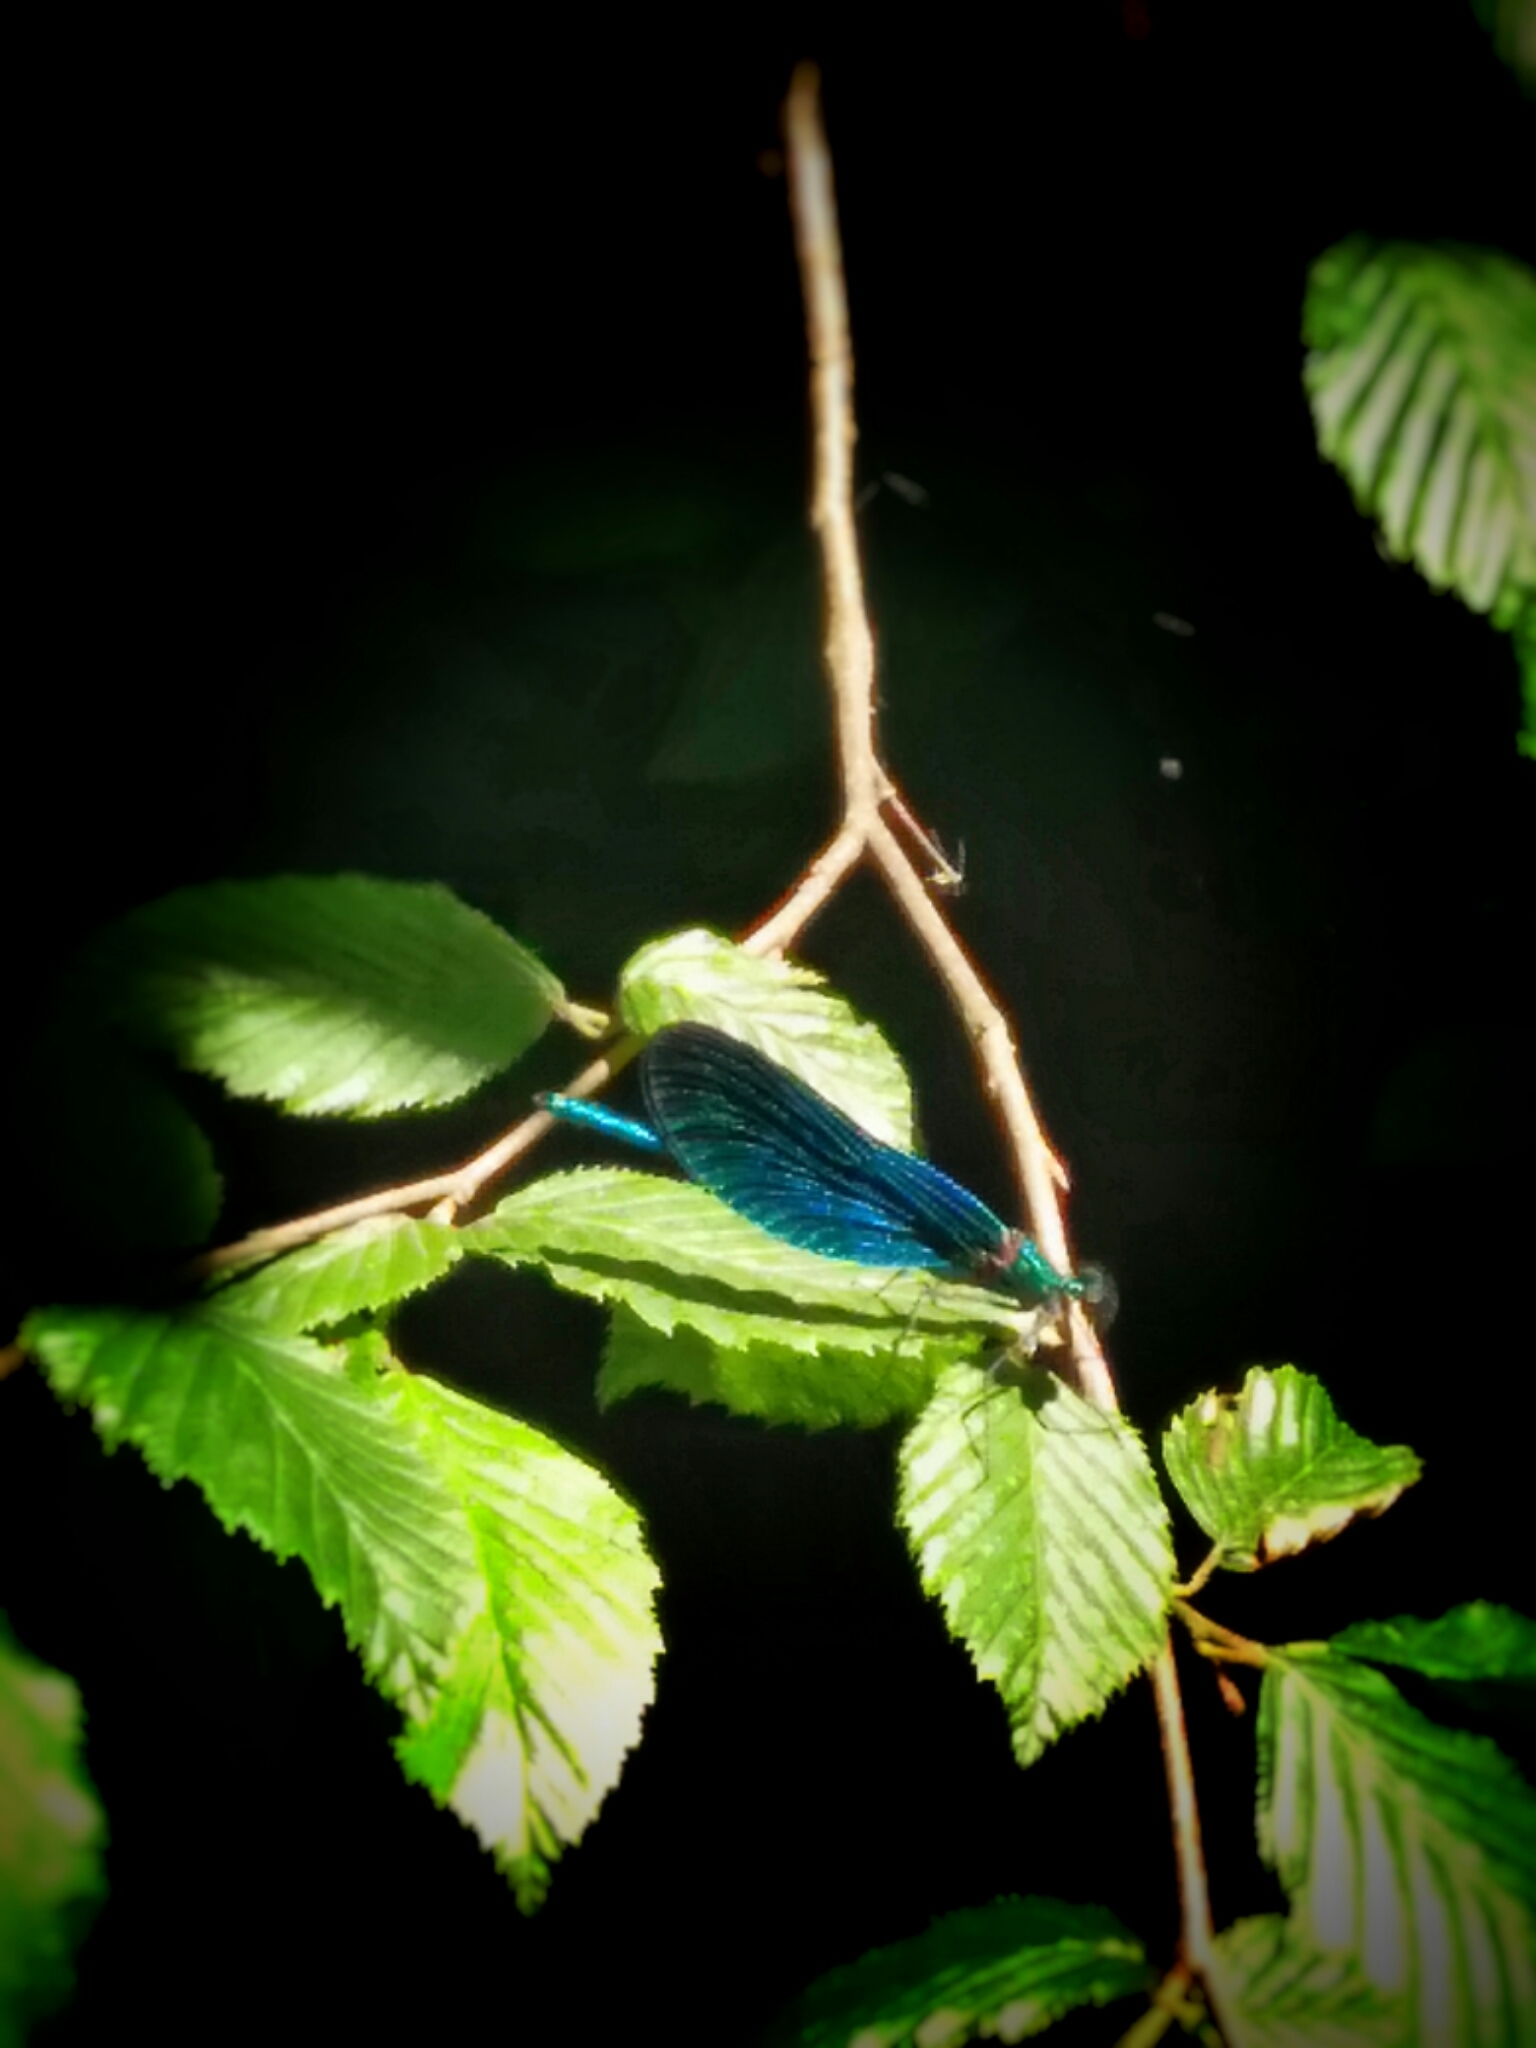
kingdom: Animalia
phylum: Arthropoda
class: Insecta
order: Odonata
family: Calopterygidae
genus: Calopteryx
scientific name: Calopteryx virgo
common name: Beautiful demoiselle
